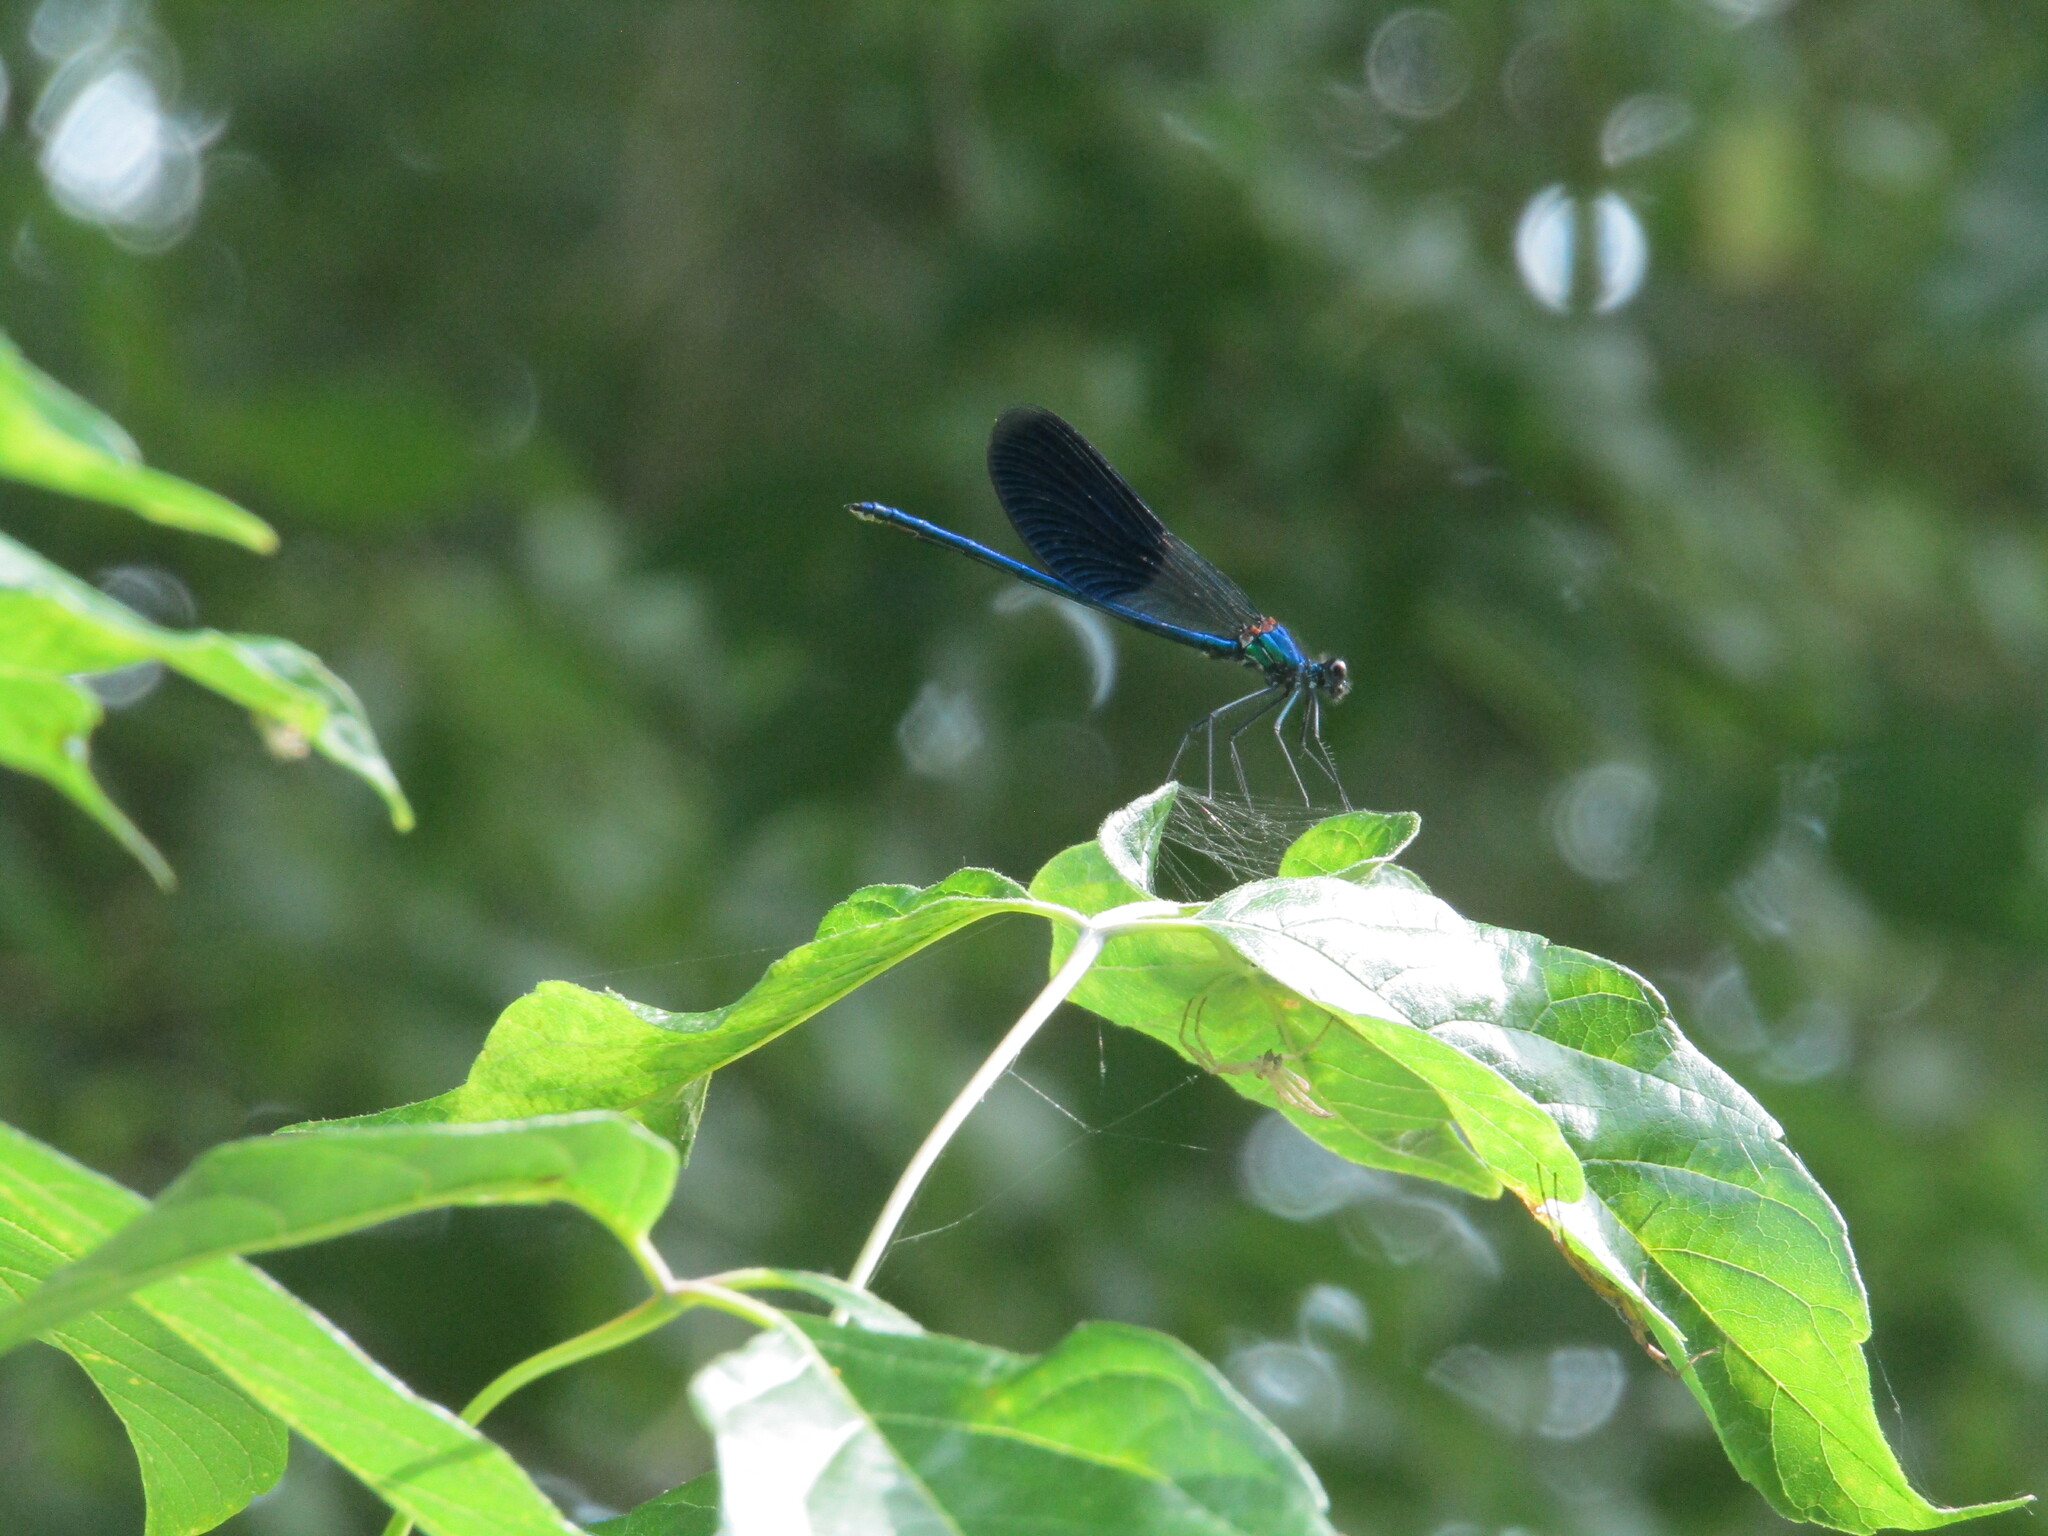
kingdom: Animalia
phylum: Arthropoda
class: Insecta
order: Odonata
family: Calopterygidae
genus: Calopteryx
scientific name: Calopteryx splendens
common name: Banded demoiselle
